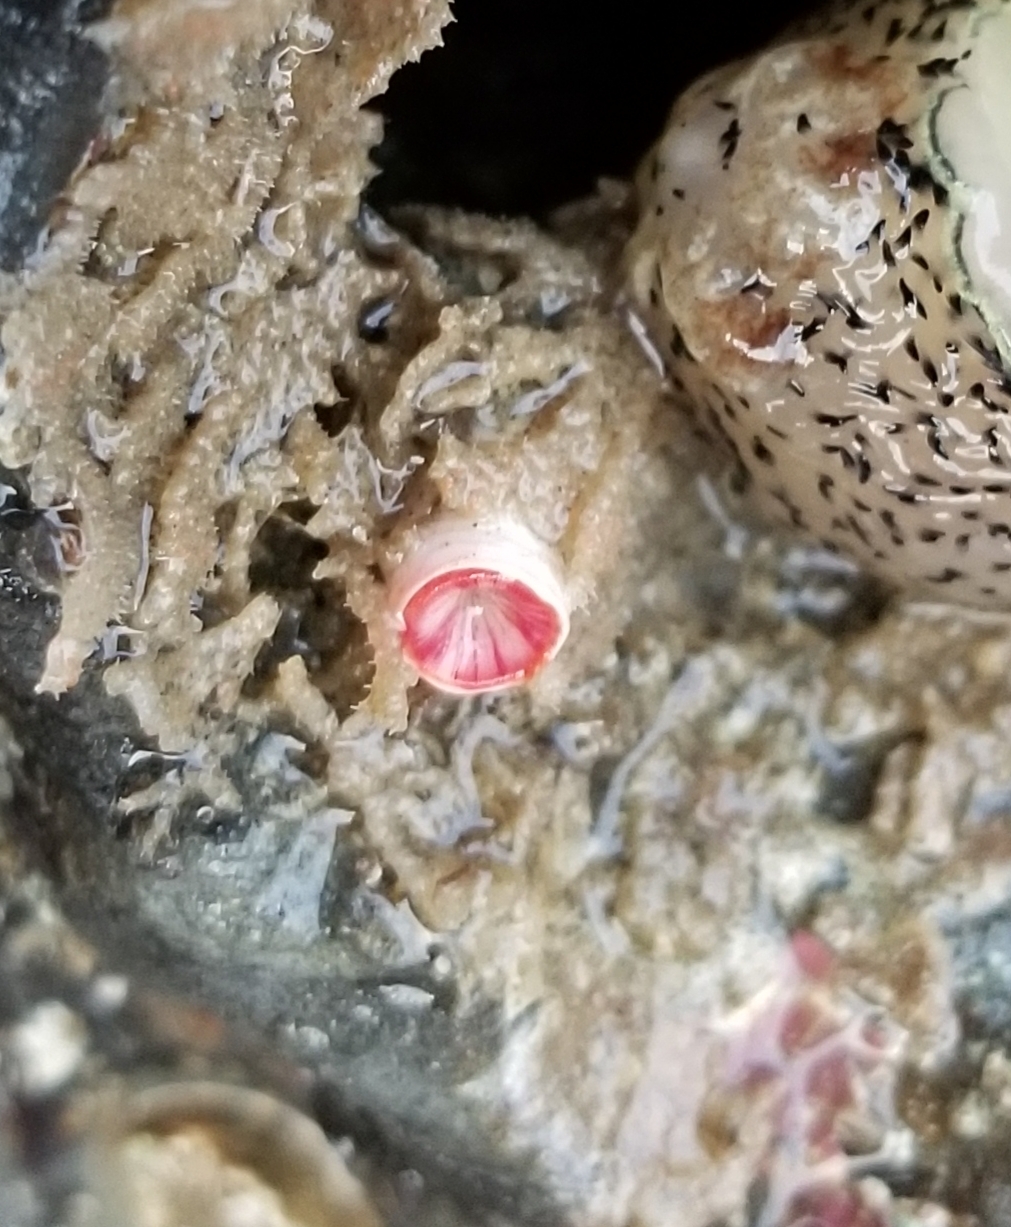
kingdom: Animalia
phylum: Annelida
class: Polychaeta
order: Sabellida
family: Serpulidae
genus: Serpula
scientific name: Serpula columbiana
